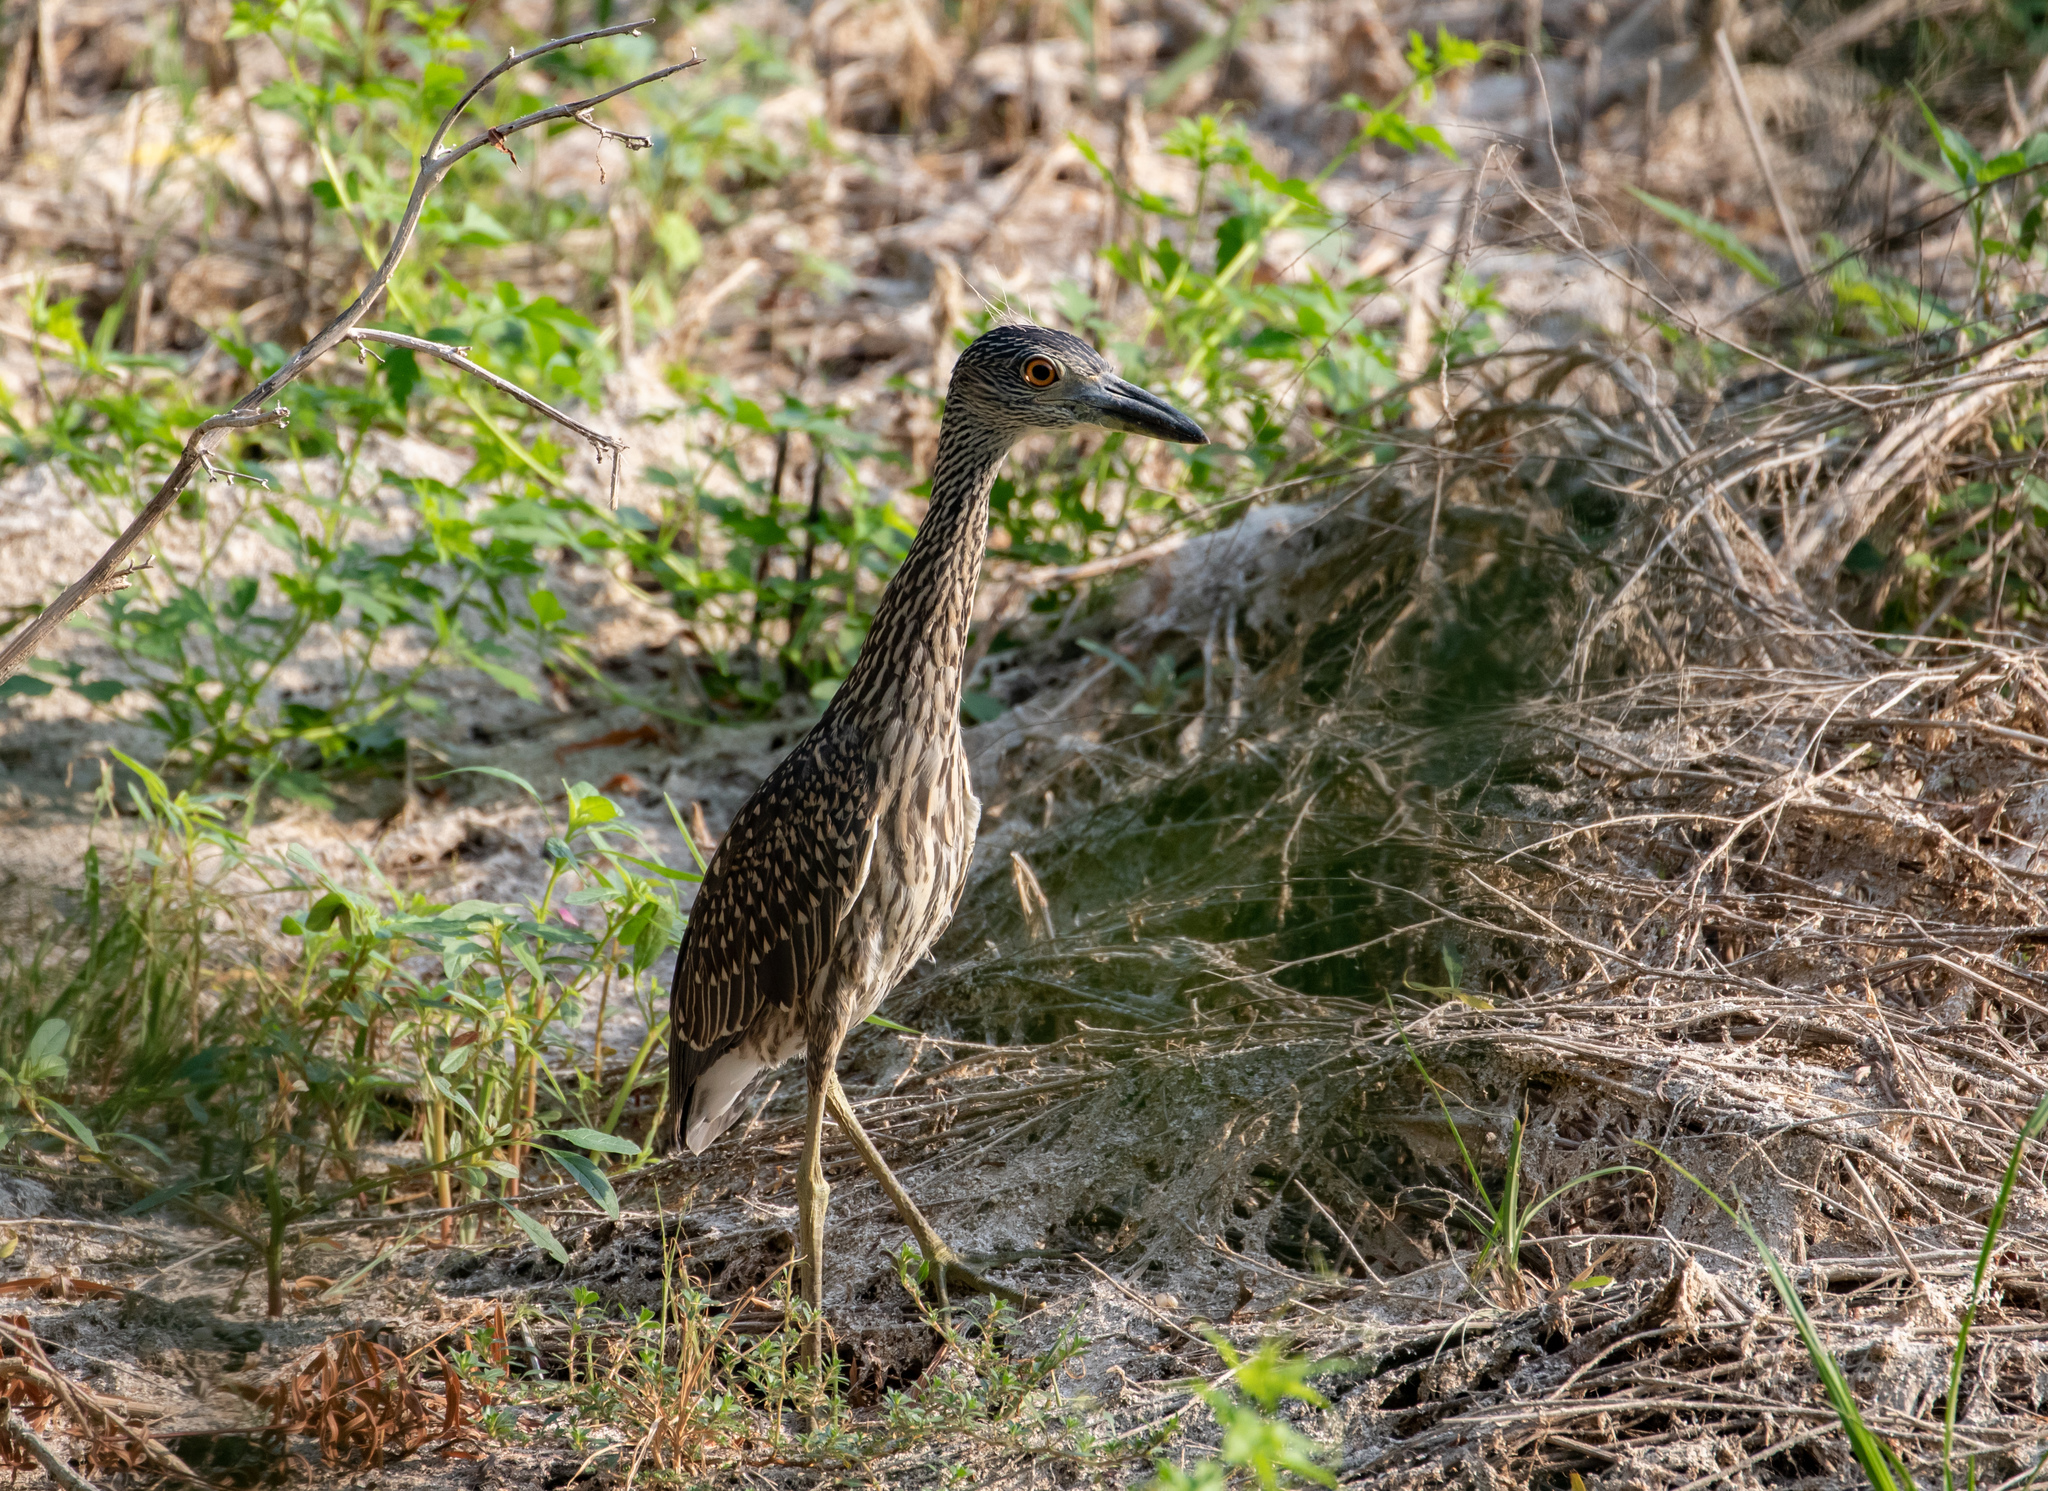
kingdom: Animalia
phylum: Chordata
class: Aves
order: Pelecaniformes
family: Ardeidae
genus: Nyctanassa
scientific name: Nyctanassa violacea
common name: Yellow-crowned night heron
